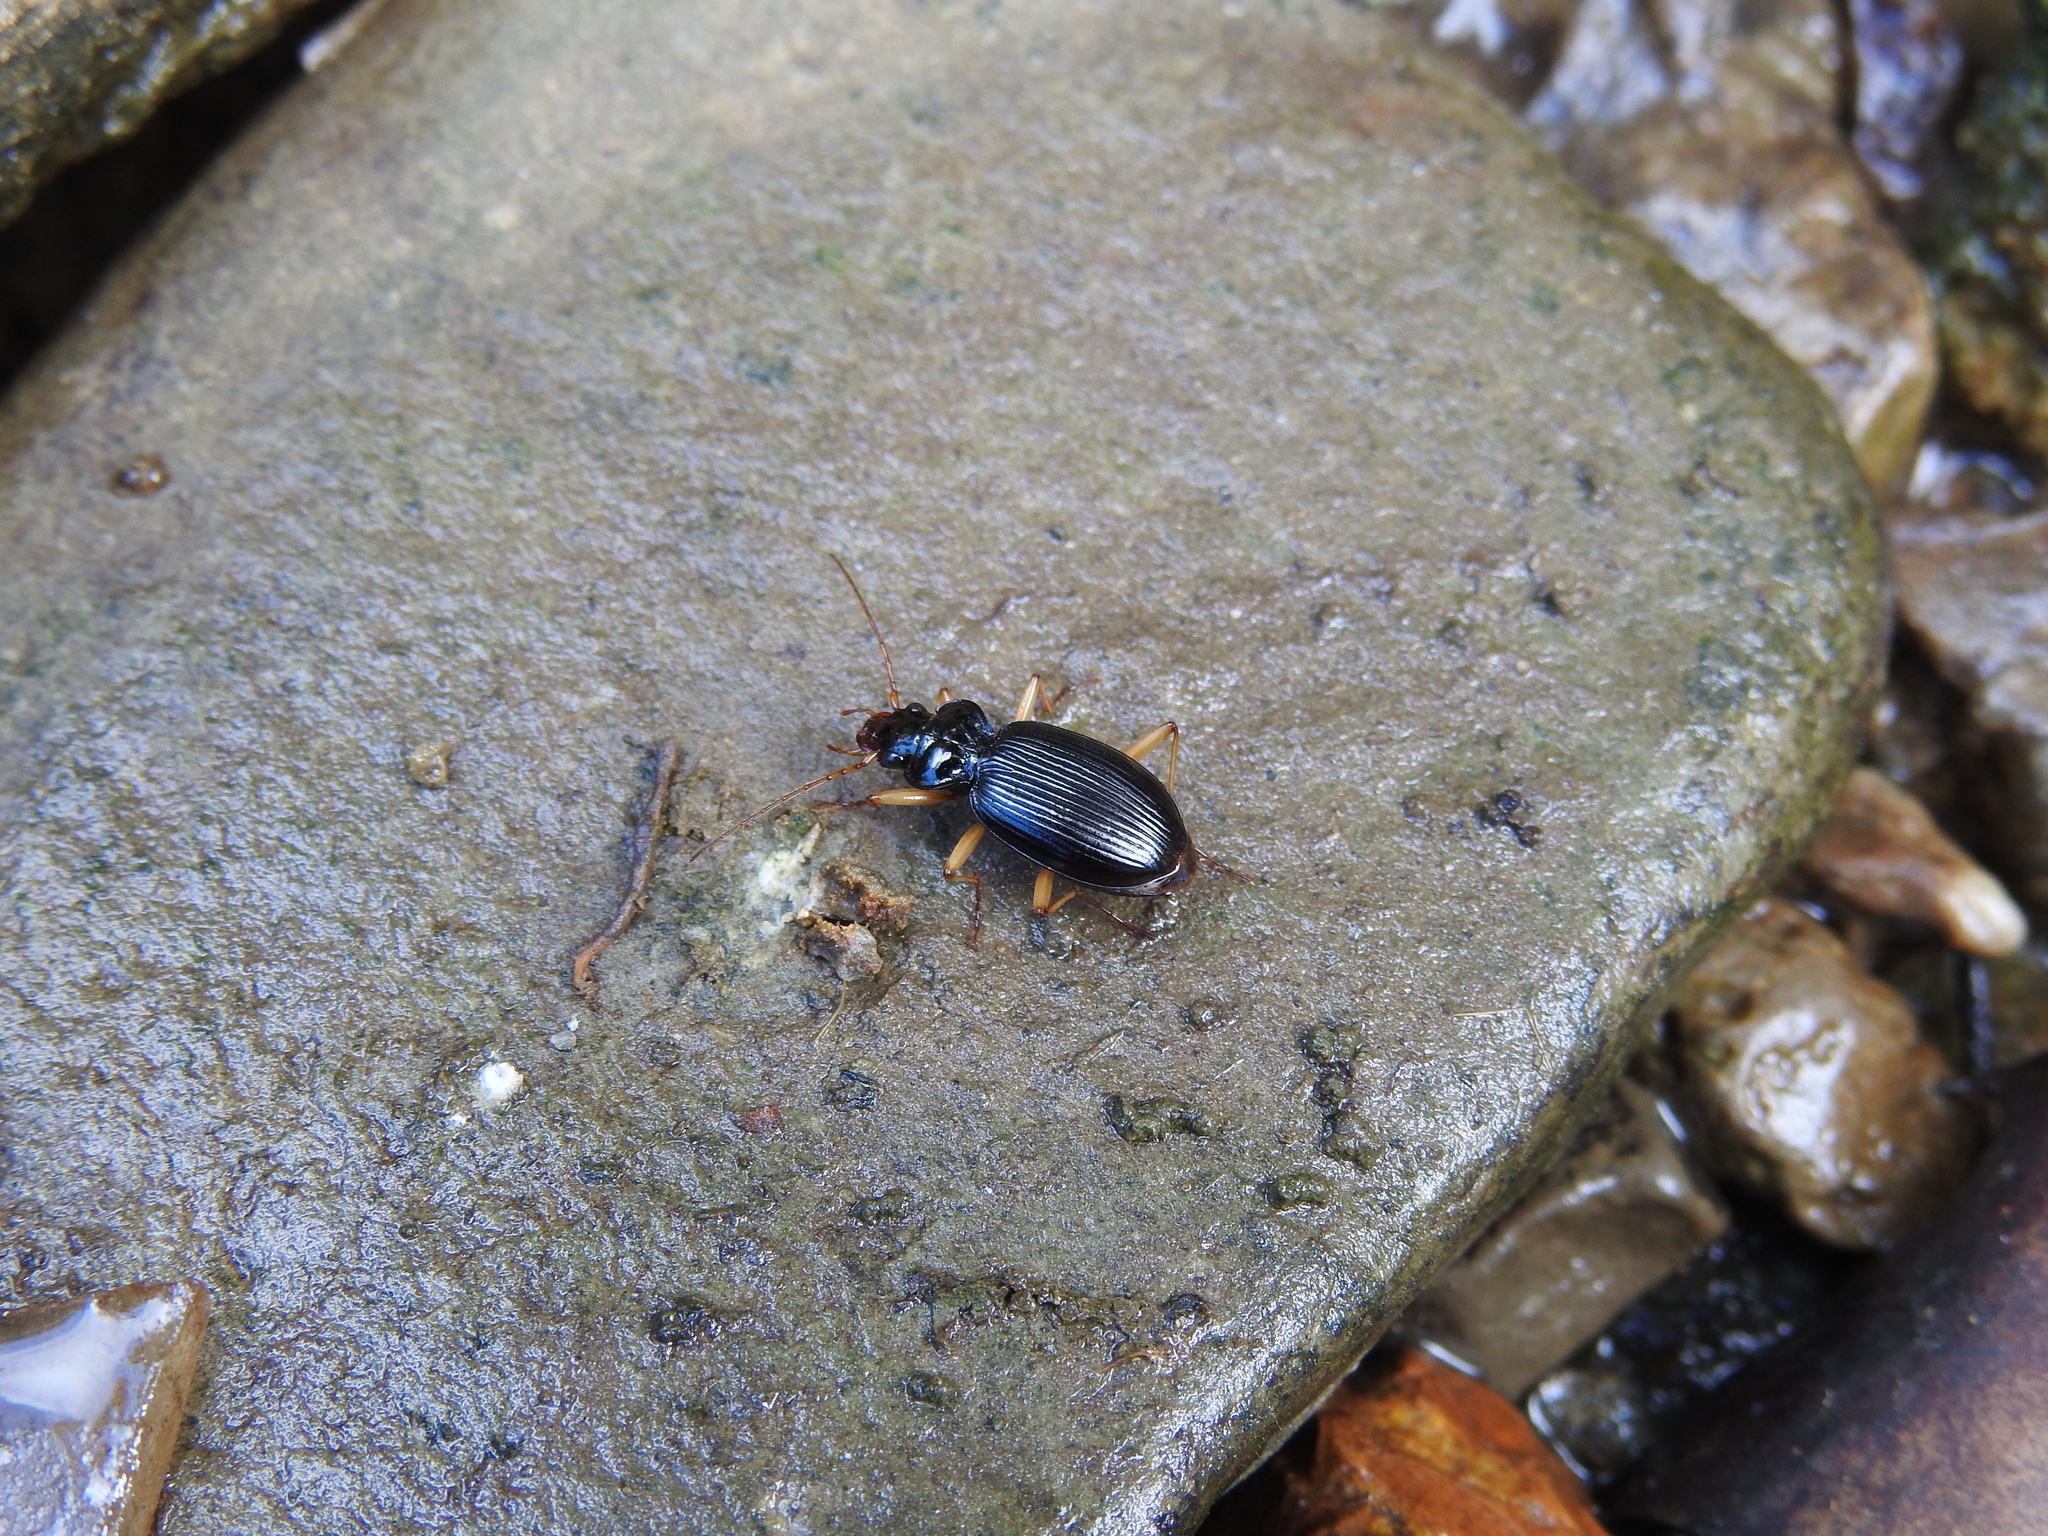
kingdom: Animalia
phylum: Arthropoda
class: Insecta
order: Coleoptera
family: Carabidae
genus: Nebria
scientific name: Nebria lacustris
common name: Lacustrine gazelle beetle
